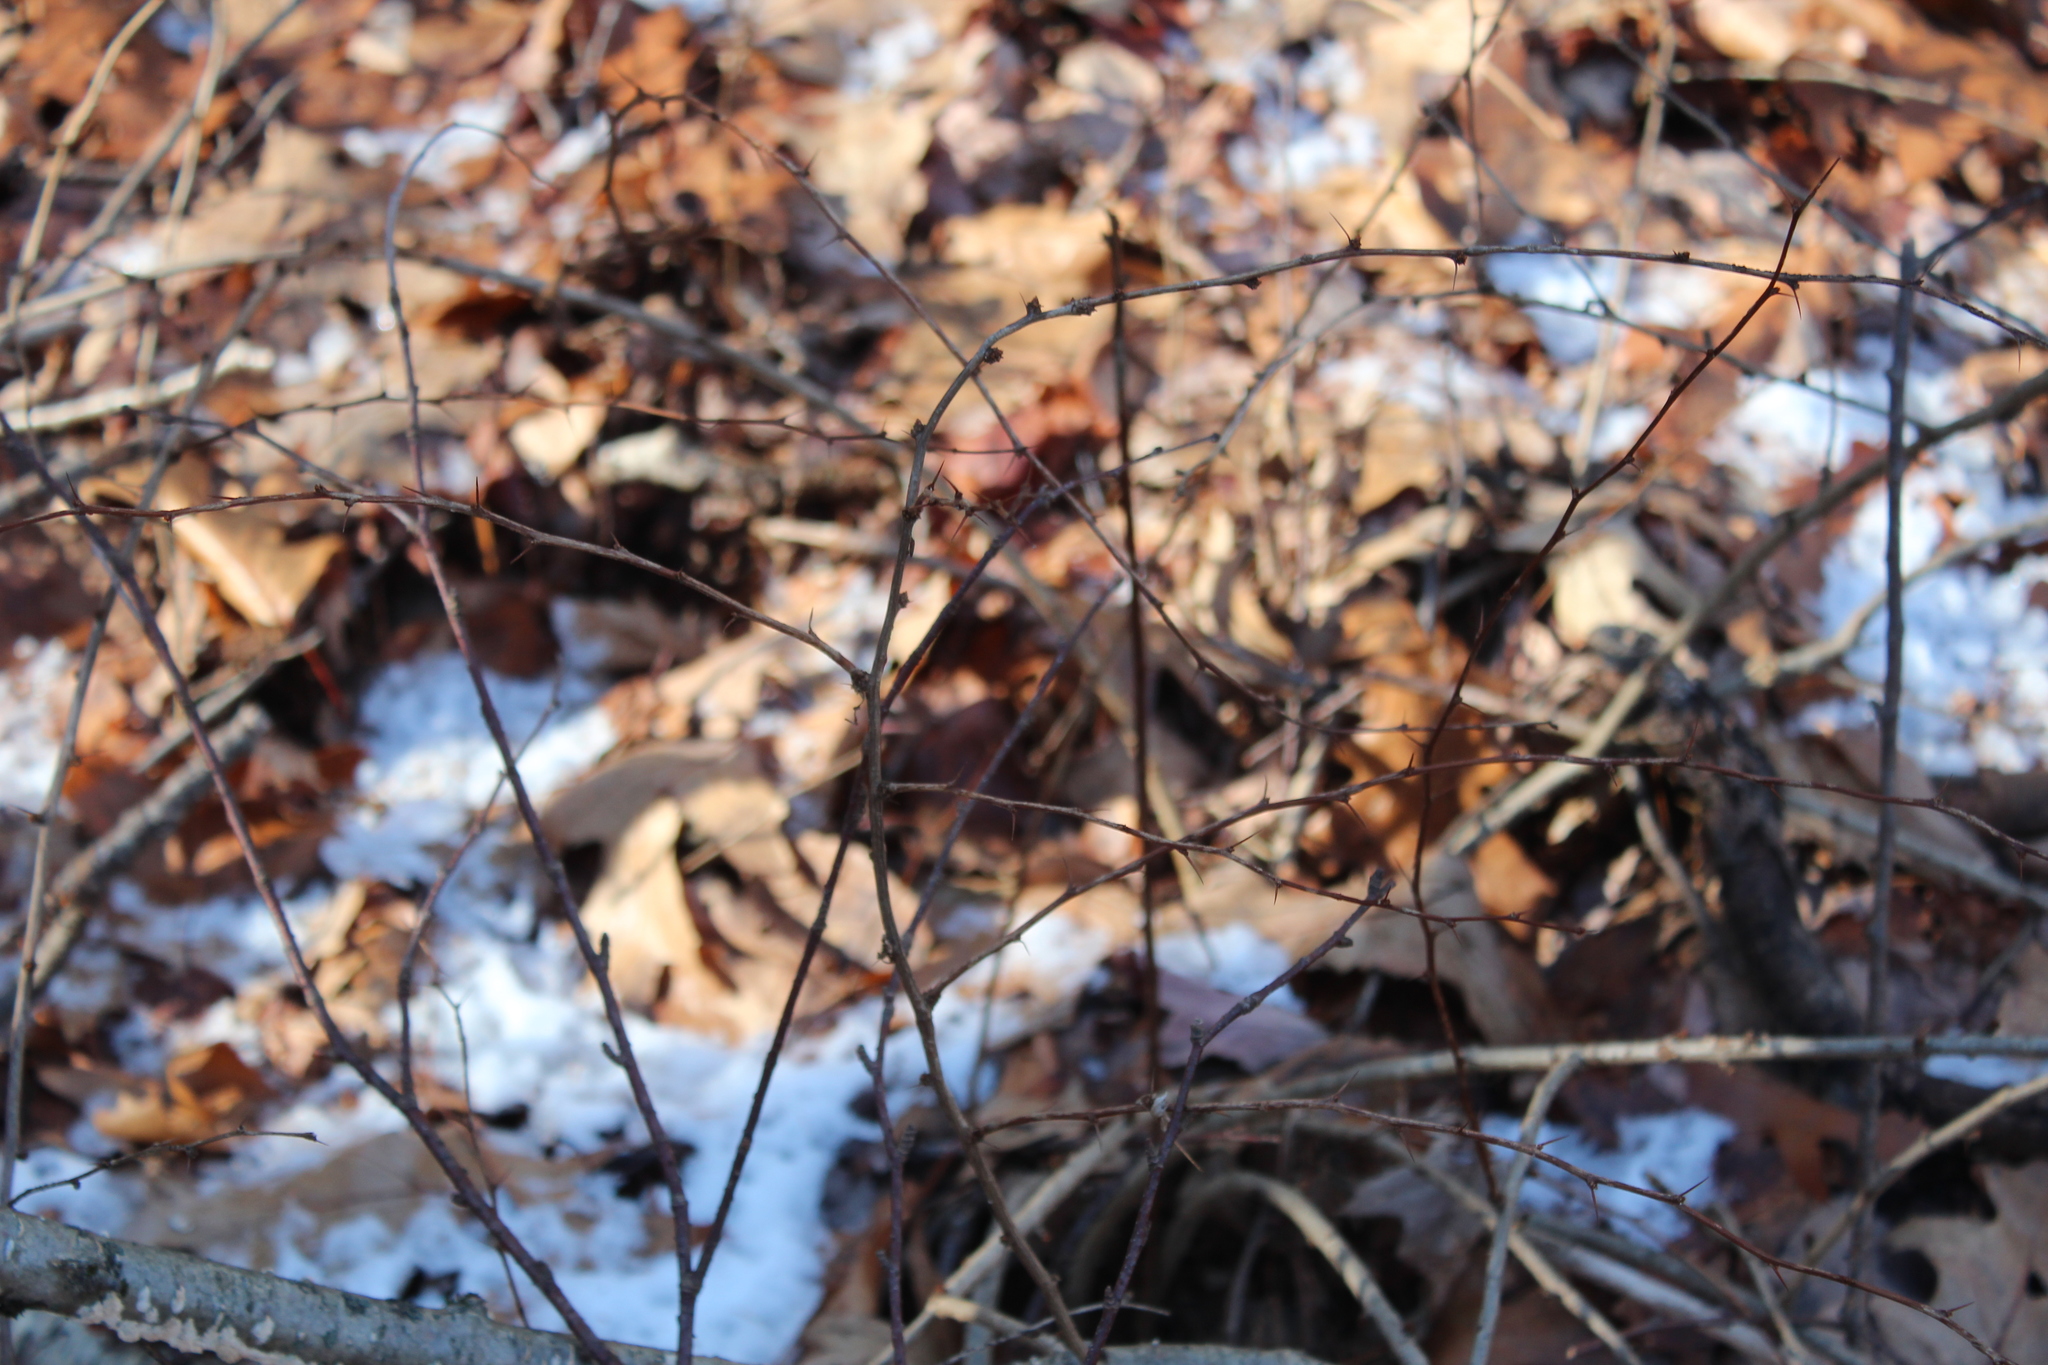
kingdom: Plantae
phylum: Tracheophyta
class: Magnoliopsida
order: Ranunculales
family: Berberidaceae
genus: Berberis
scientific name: Berberis thunbergii
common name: Japanese barberry
